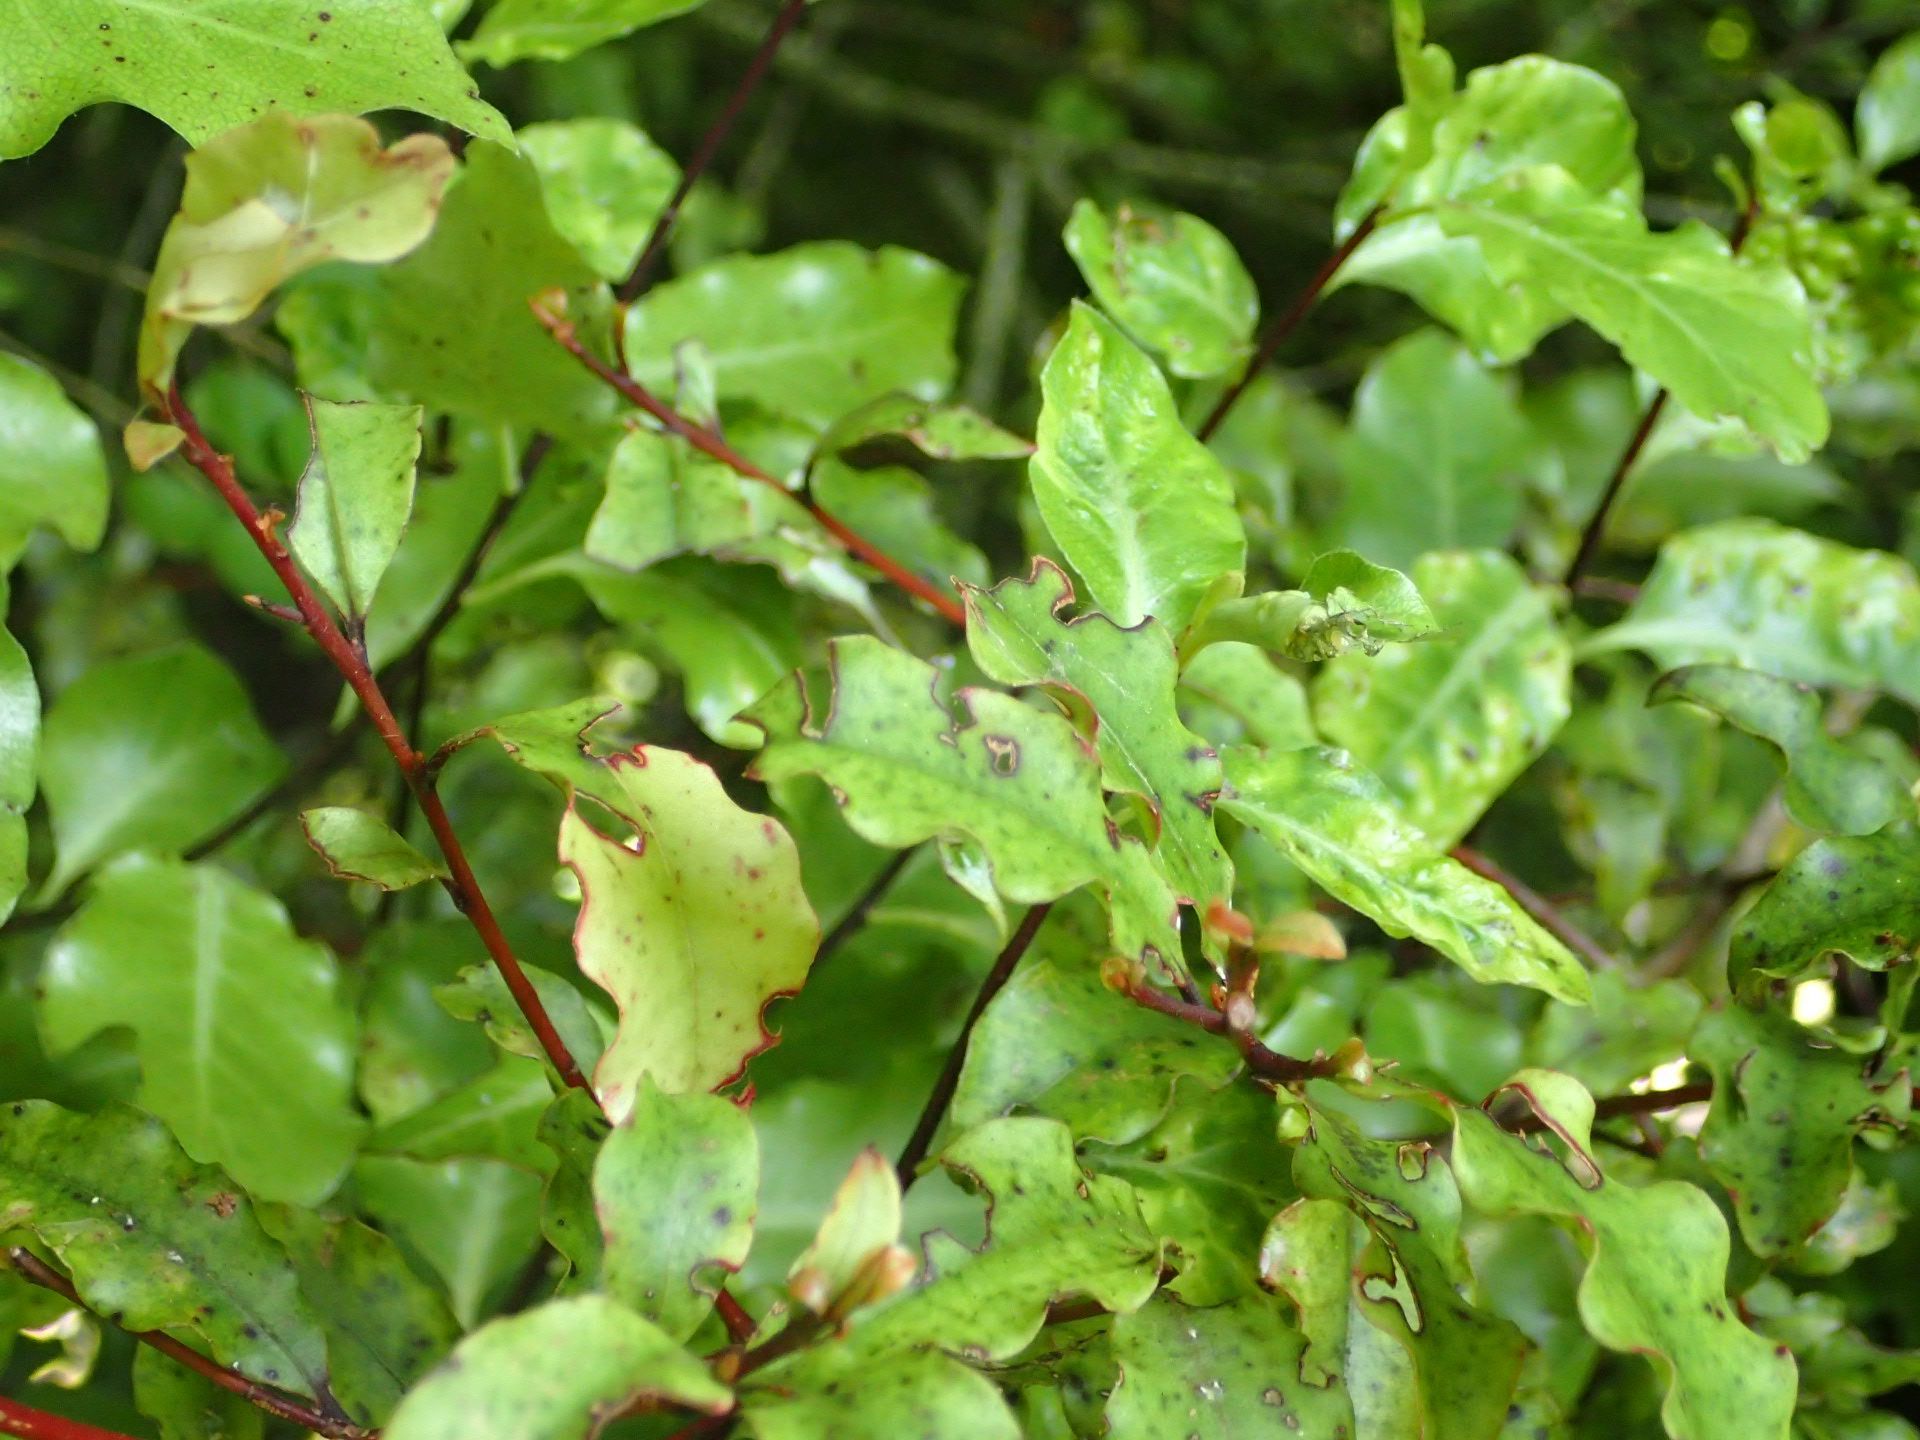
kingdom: Plantae
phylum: Tracheophyta
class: Magnoliopsida
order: Ericales
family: Primulaceae
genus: Myrsine
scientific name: Myrsine australis
